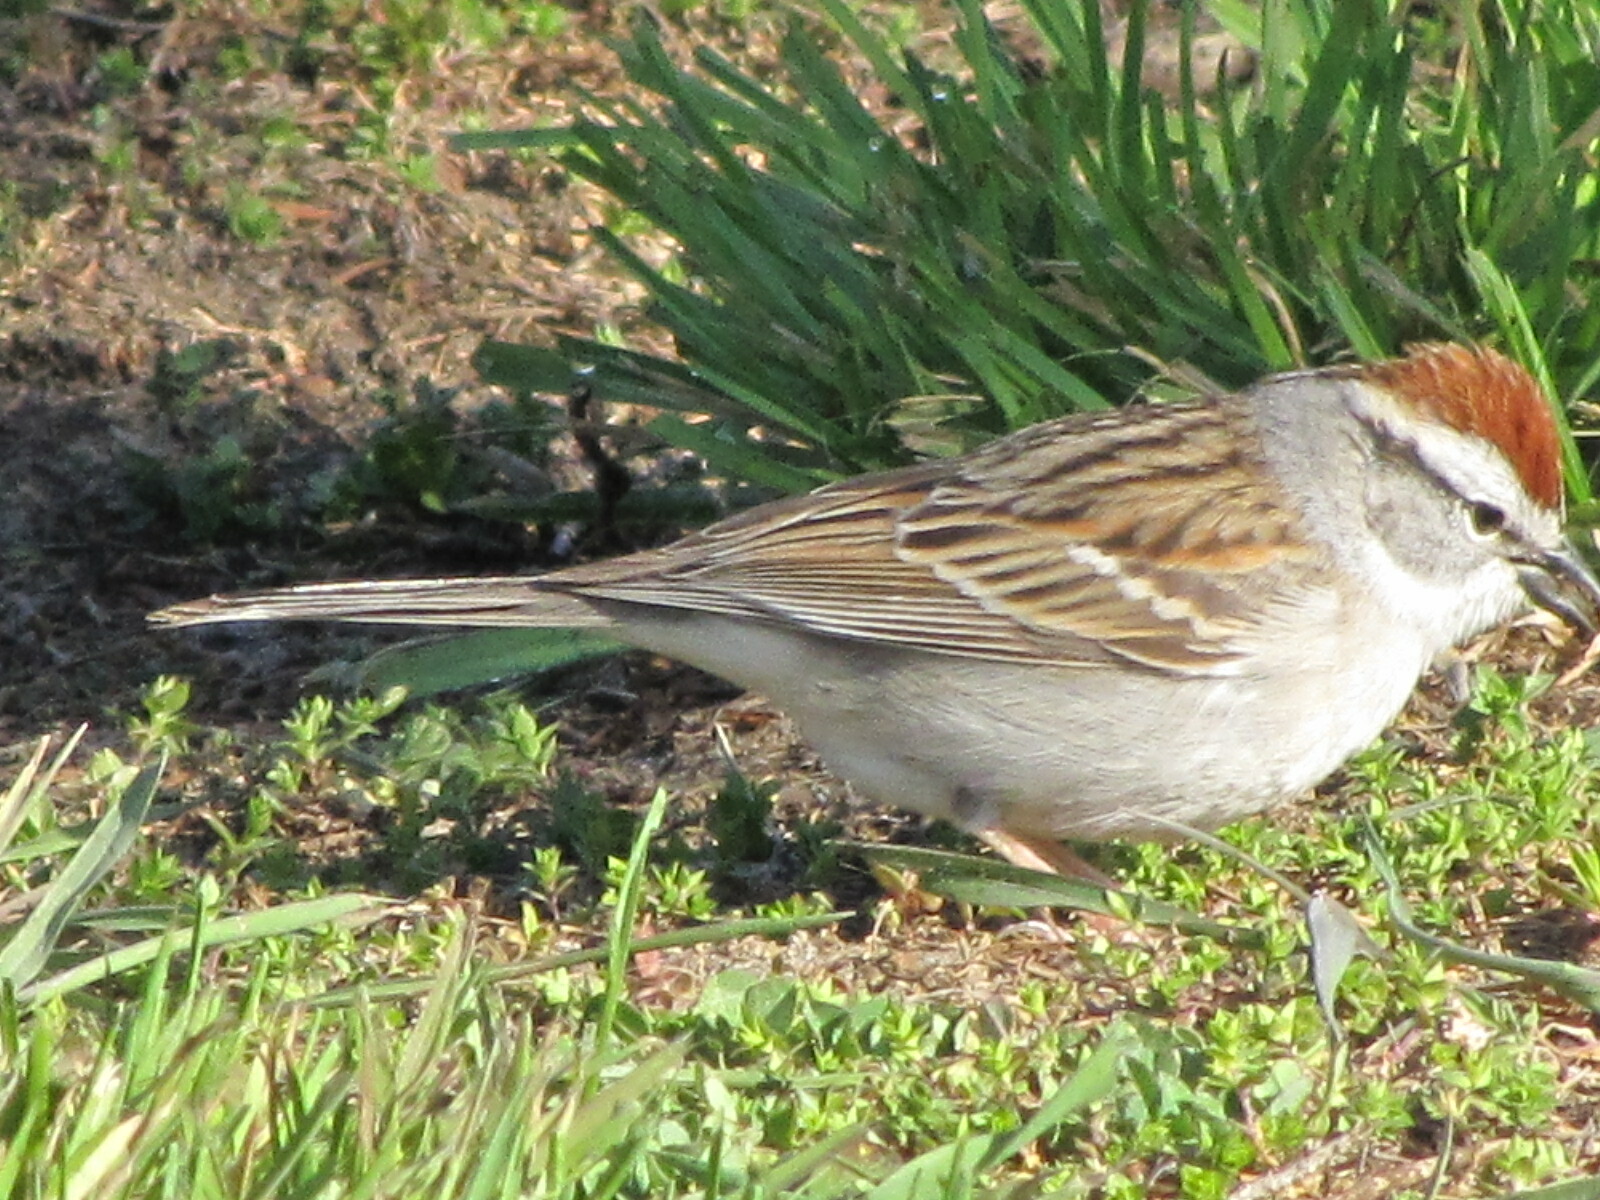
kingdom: Animalia
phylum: Chordata
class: Aves
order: Passeriformes
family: Passerellidae
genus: Spizella
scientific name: Spizella passerina
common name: Chipping sparrow
